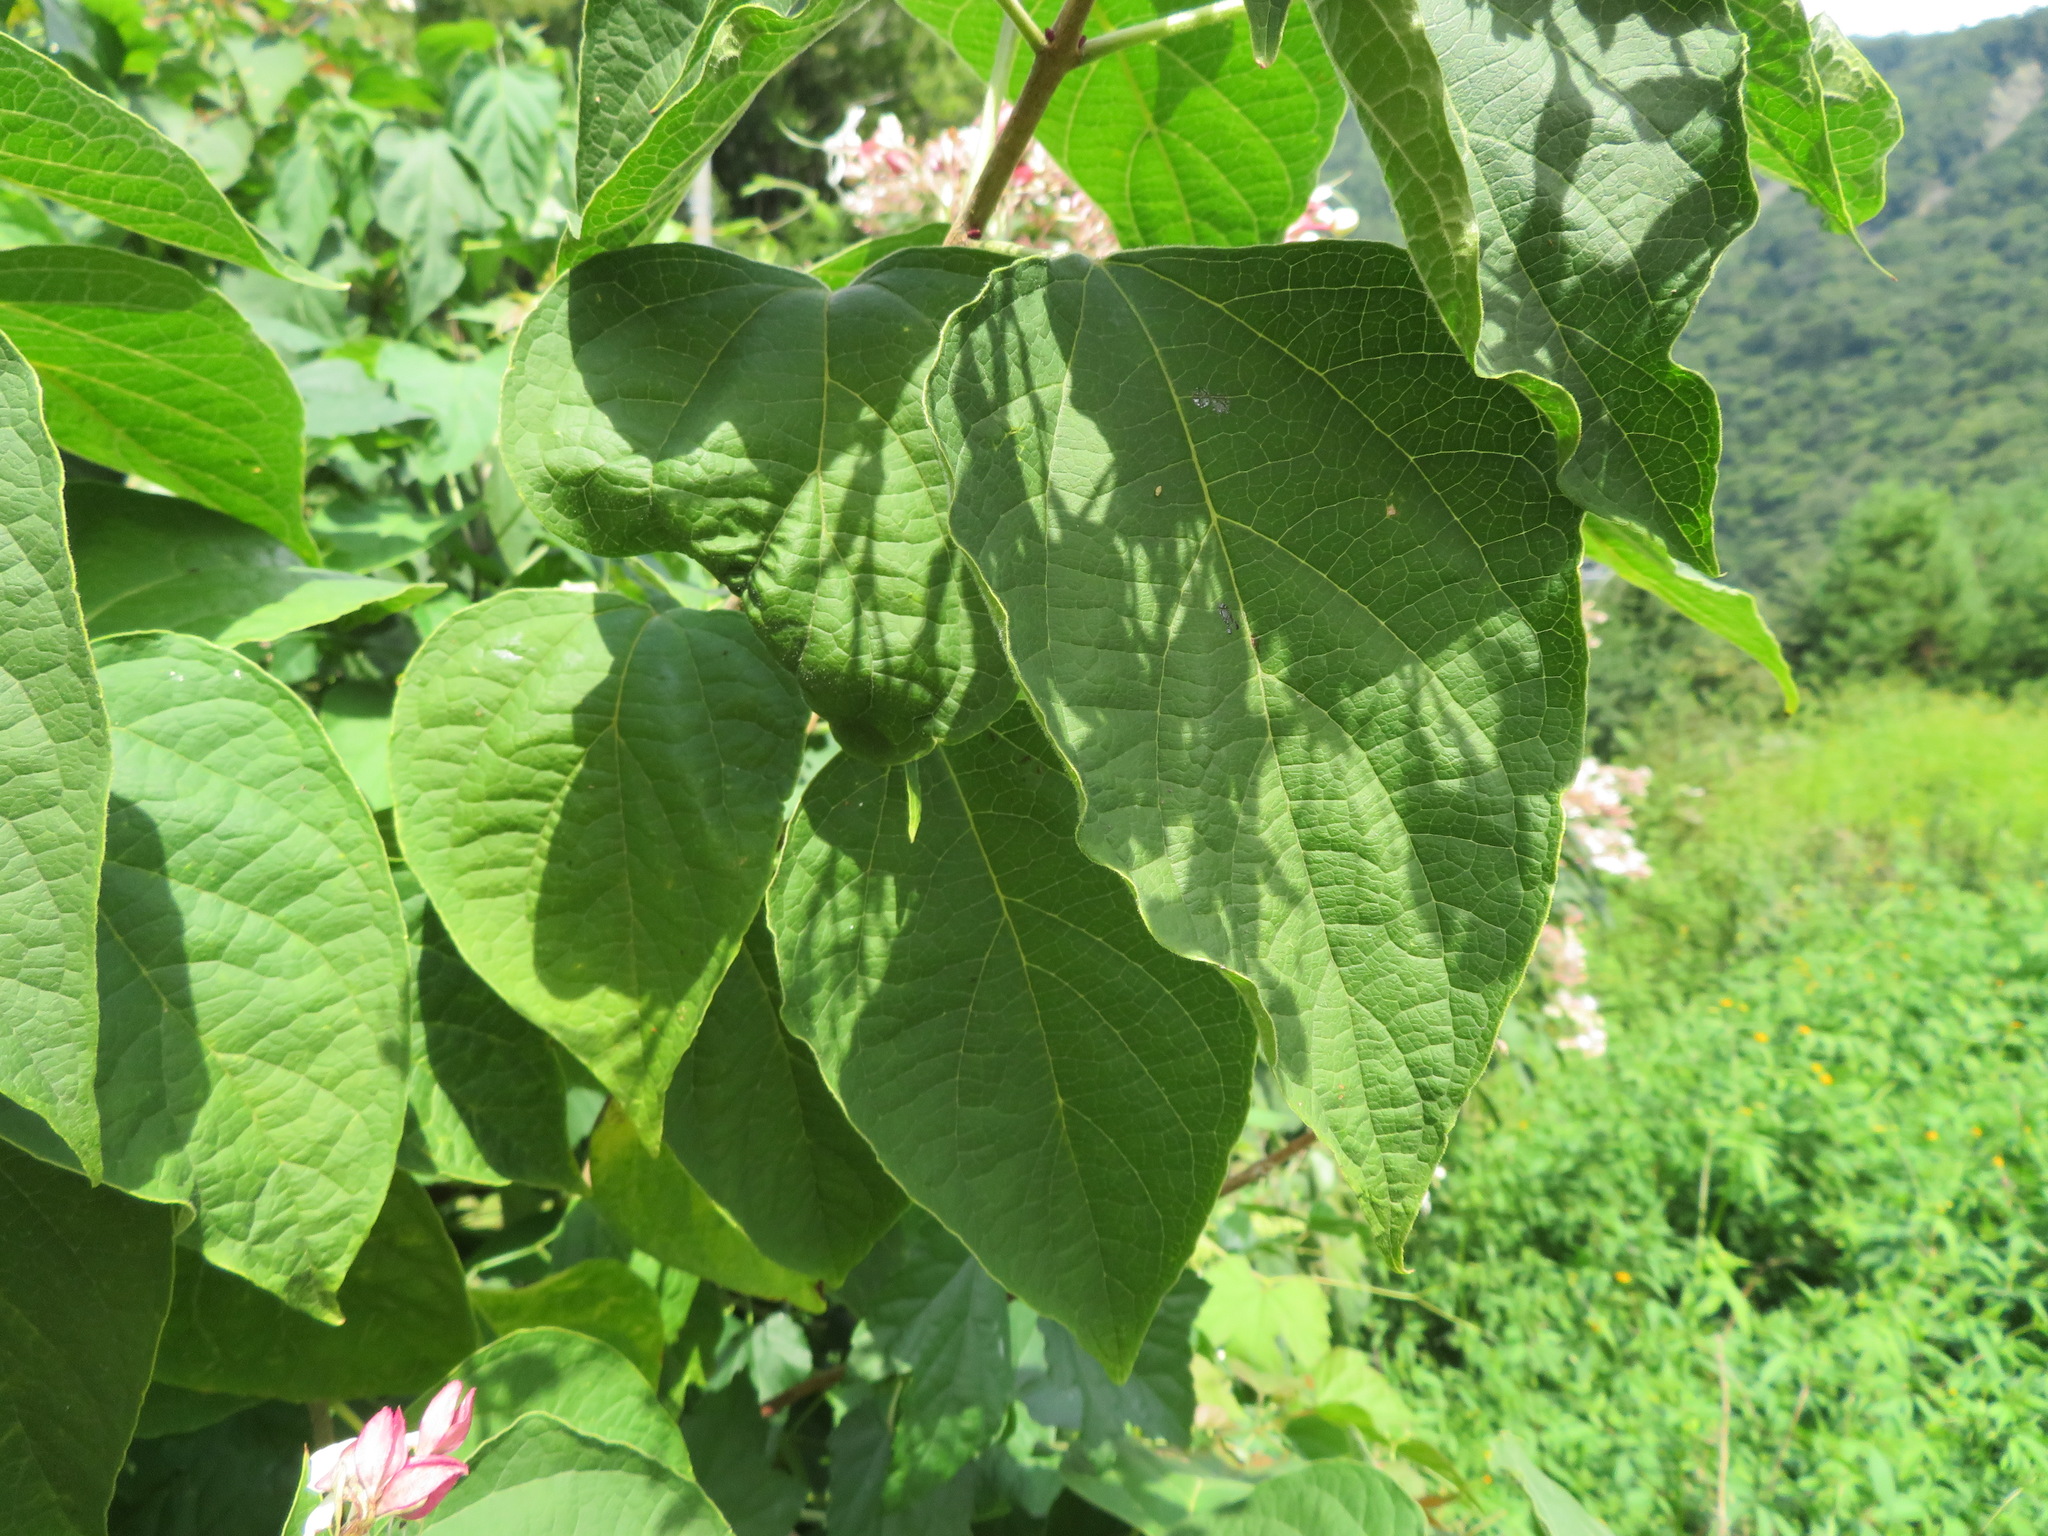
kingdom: Plantae
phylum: Tracheophyta
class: Magnoliopsida
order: Lamiales
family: Lamiaceae
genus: Clerodendrum
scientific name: Clerodendrum trichotomum
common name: Harlequin glorybower
